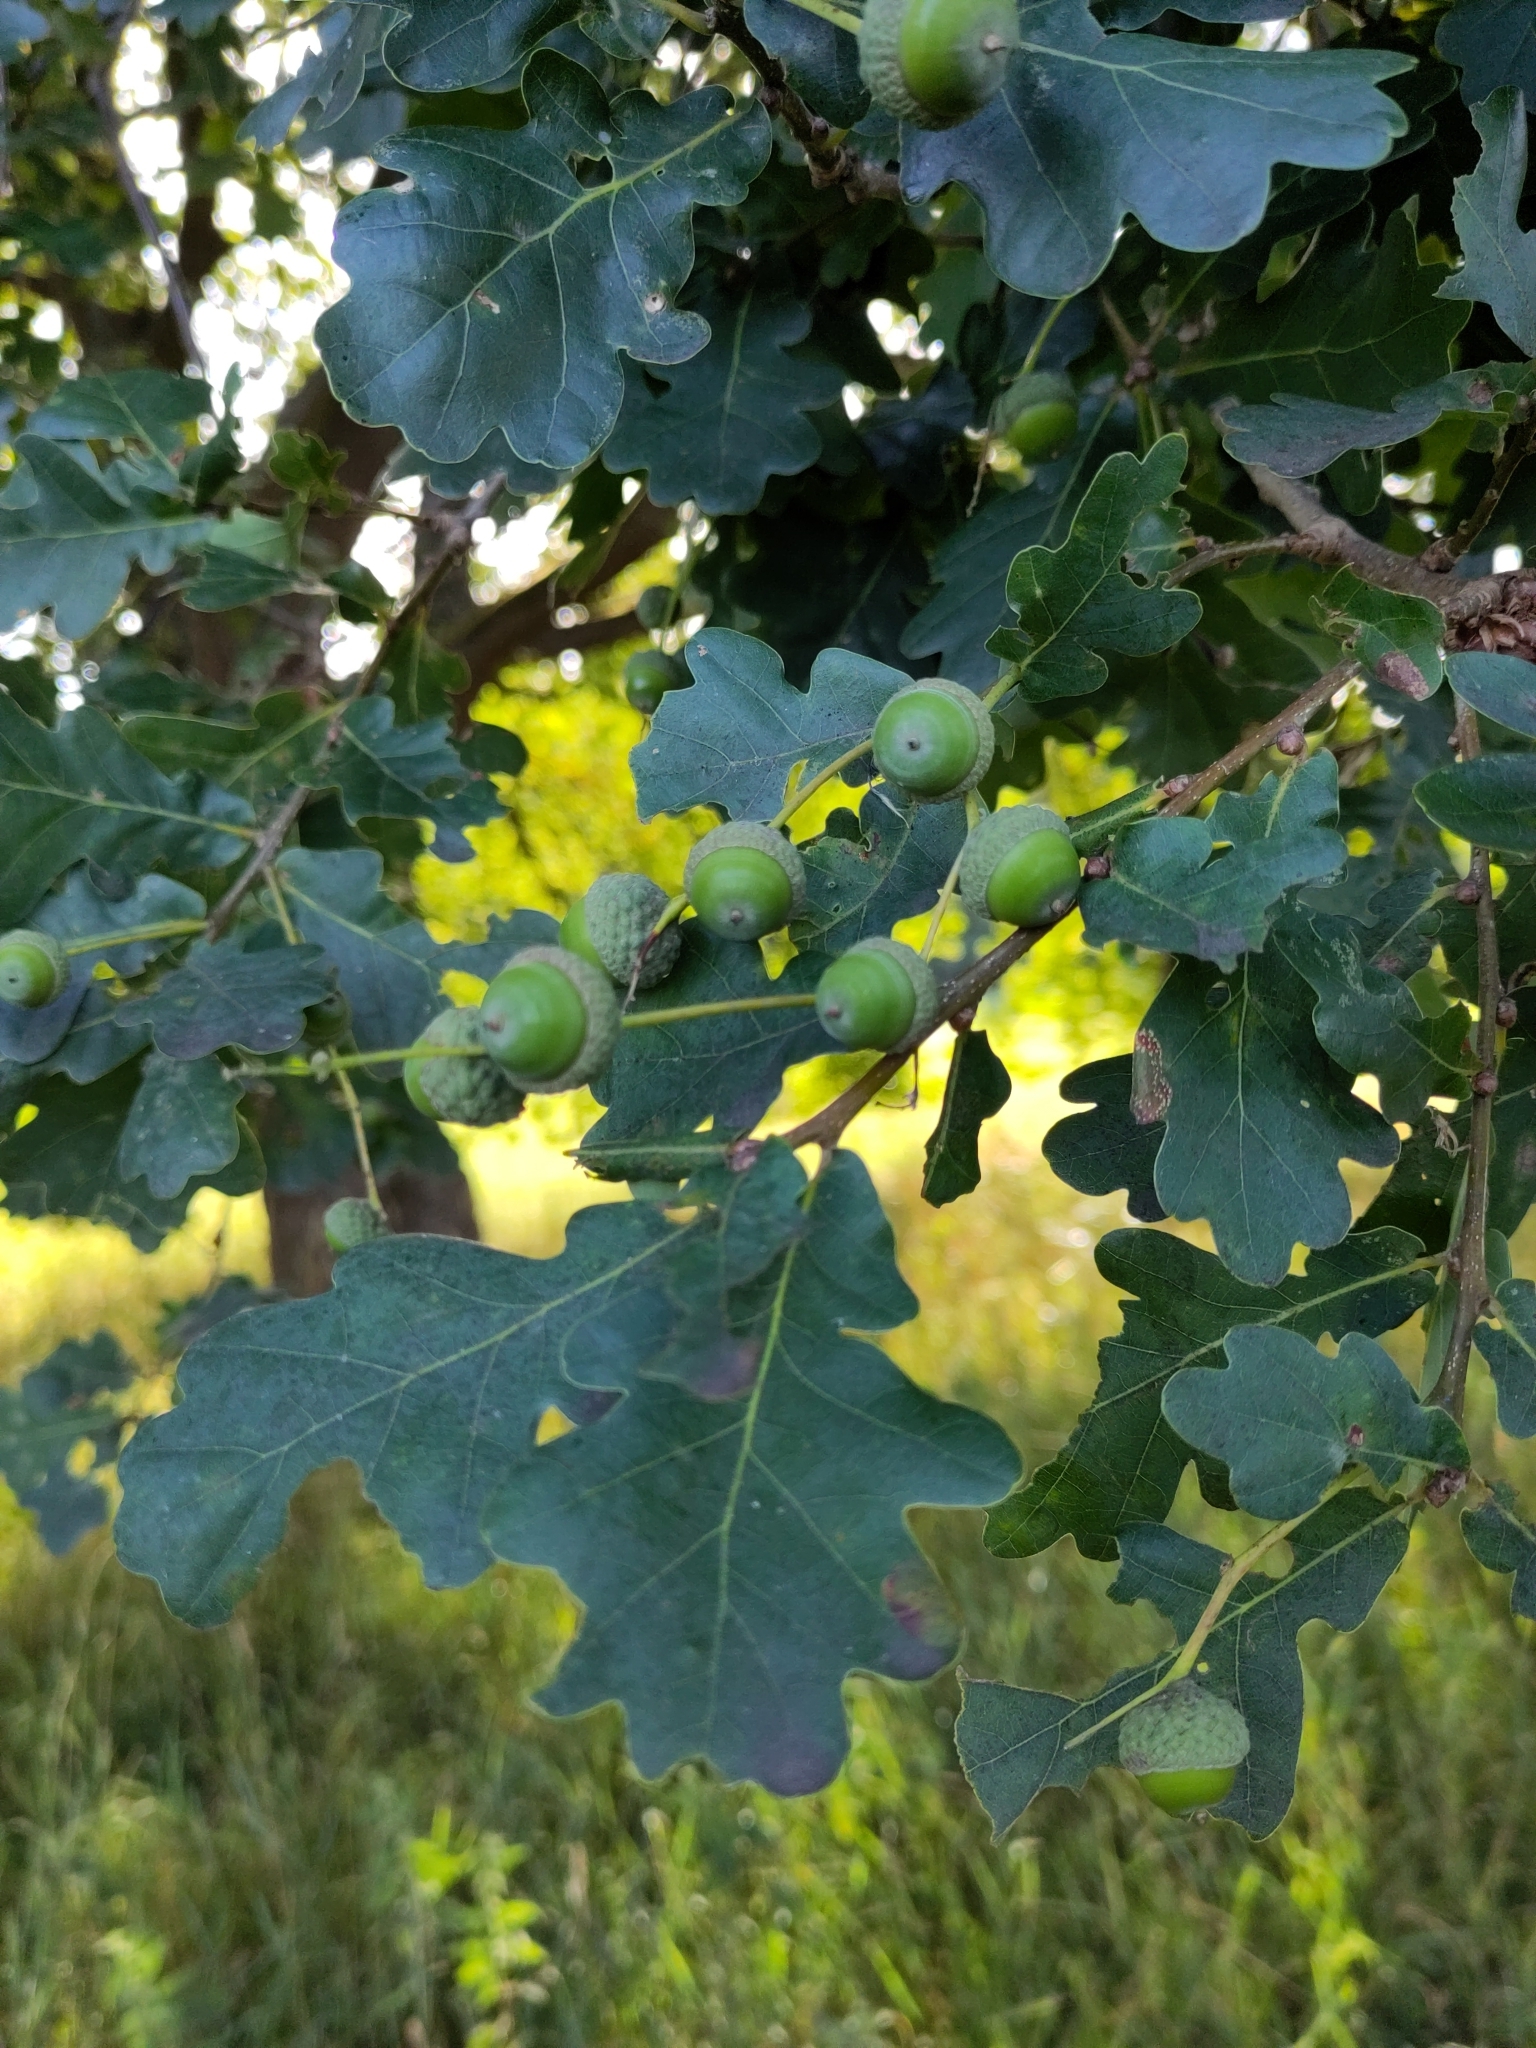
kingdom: Plantae
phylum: Tracheophyta
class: Magnoliopsida
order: Fagales
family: Fagaceae
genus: Quercus
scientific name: Quercus robur
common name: Pedunculate oak
